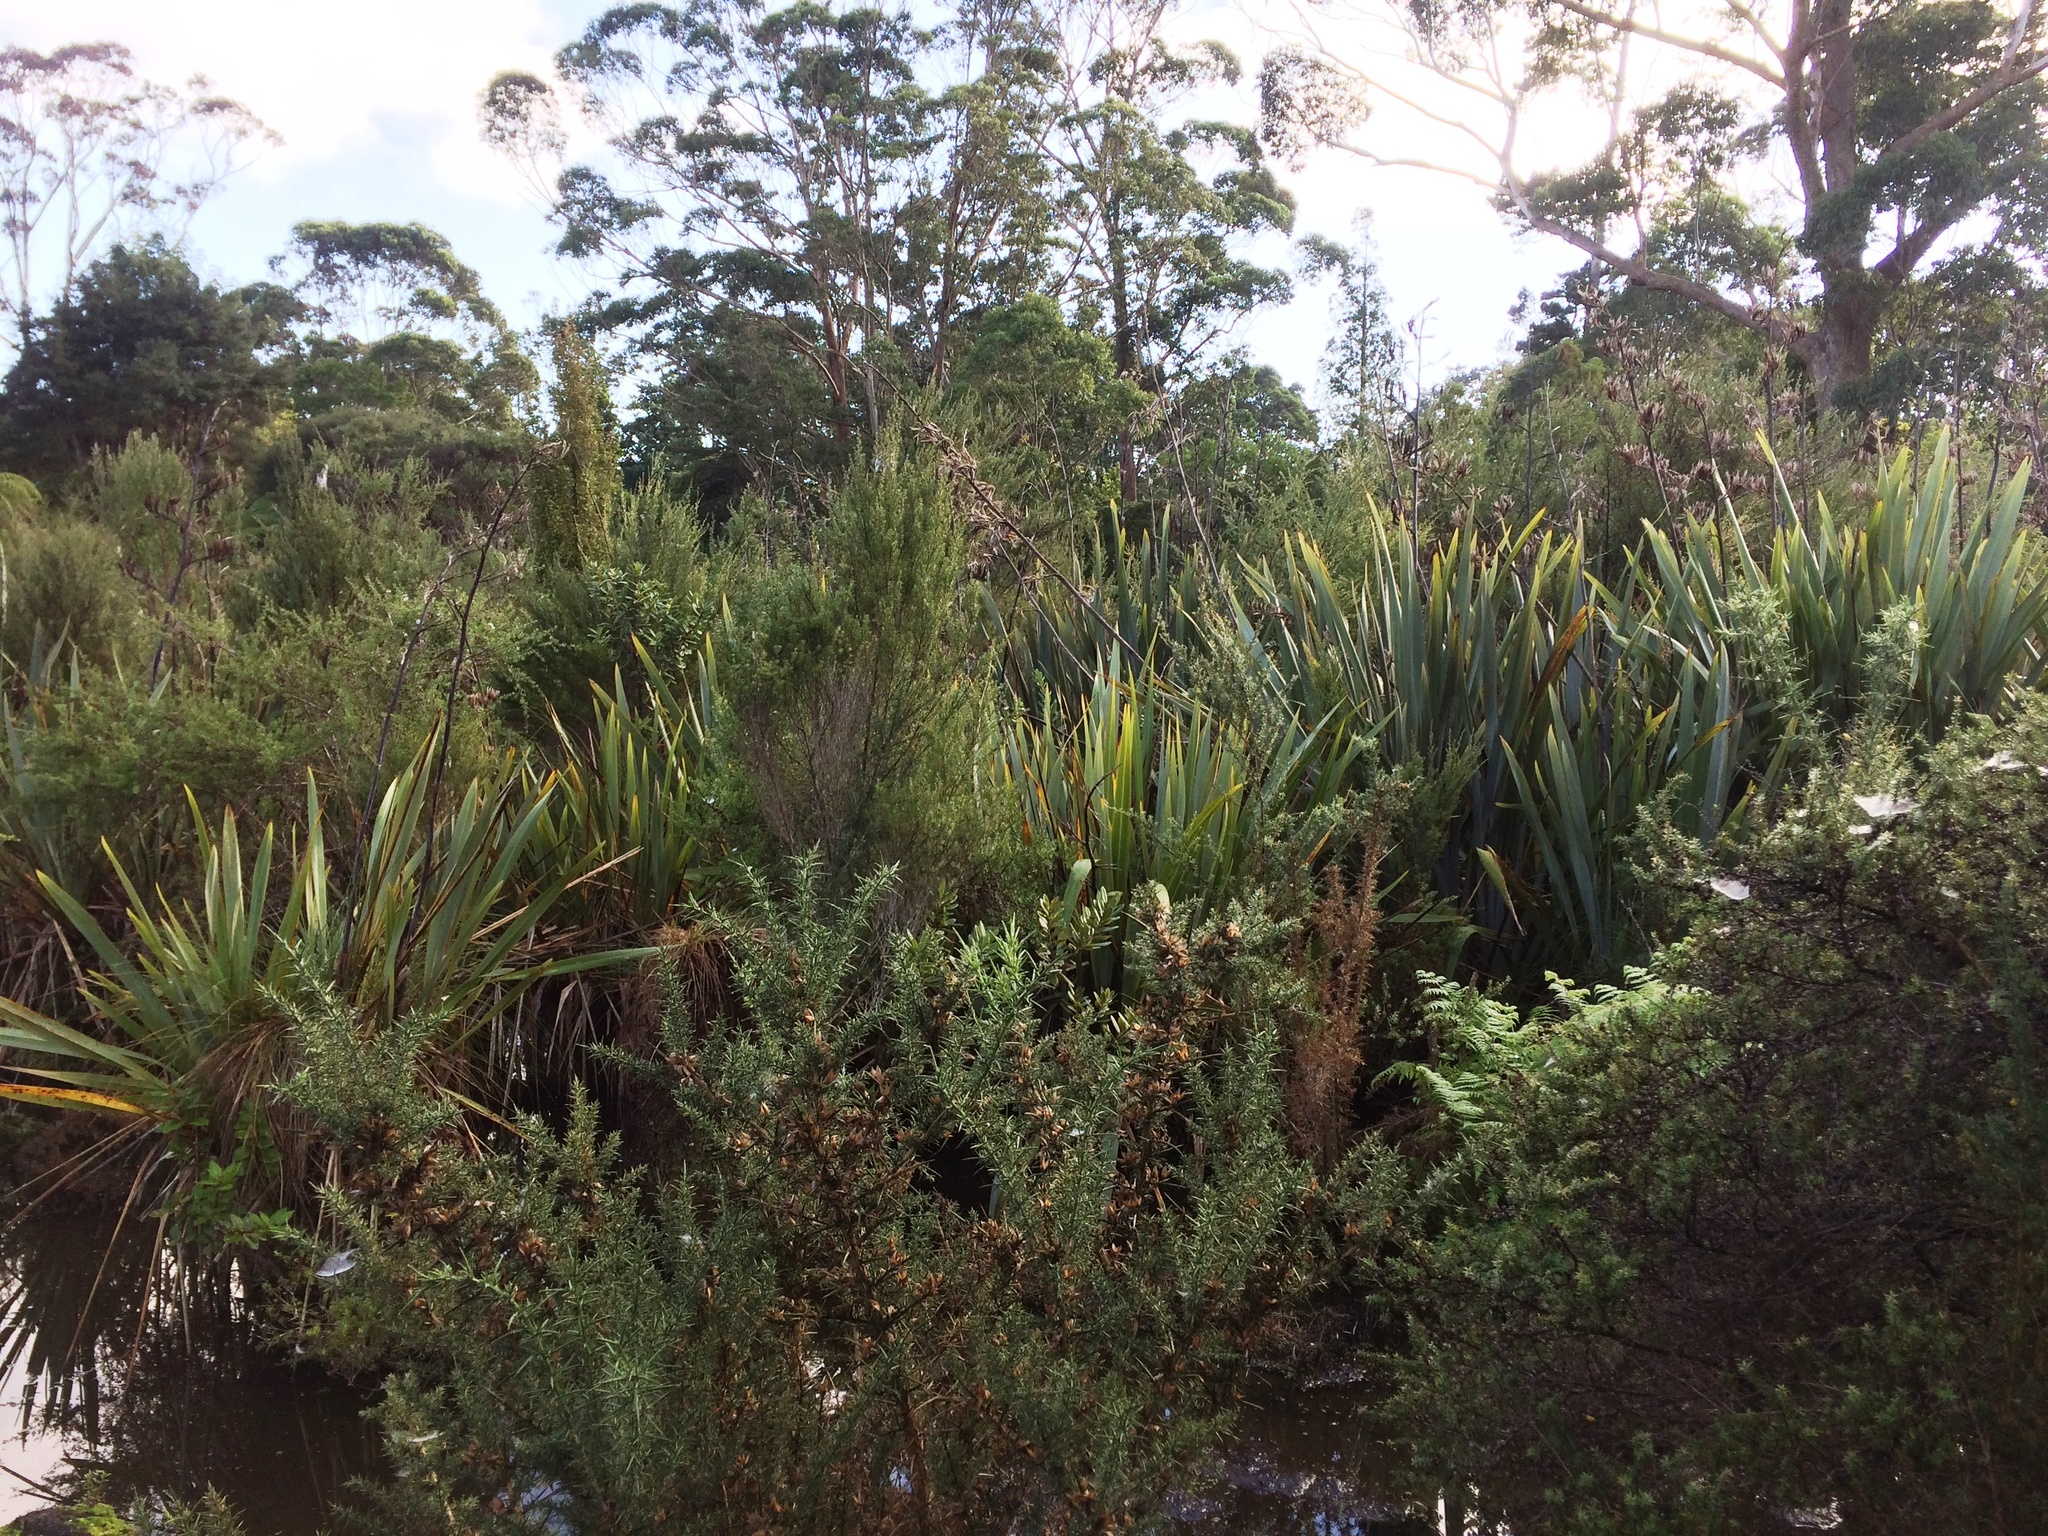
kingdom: Plantae
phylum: Tracheophyta
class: Magnoliopsida
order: Fabales
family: Fabaceae
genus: Ulex
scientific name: Ulex europaeus
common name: Common gorse
